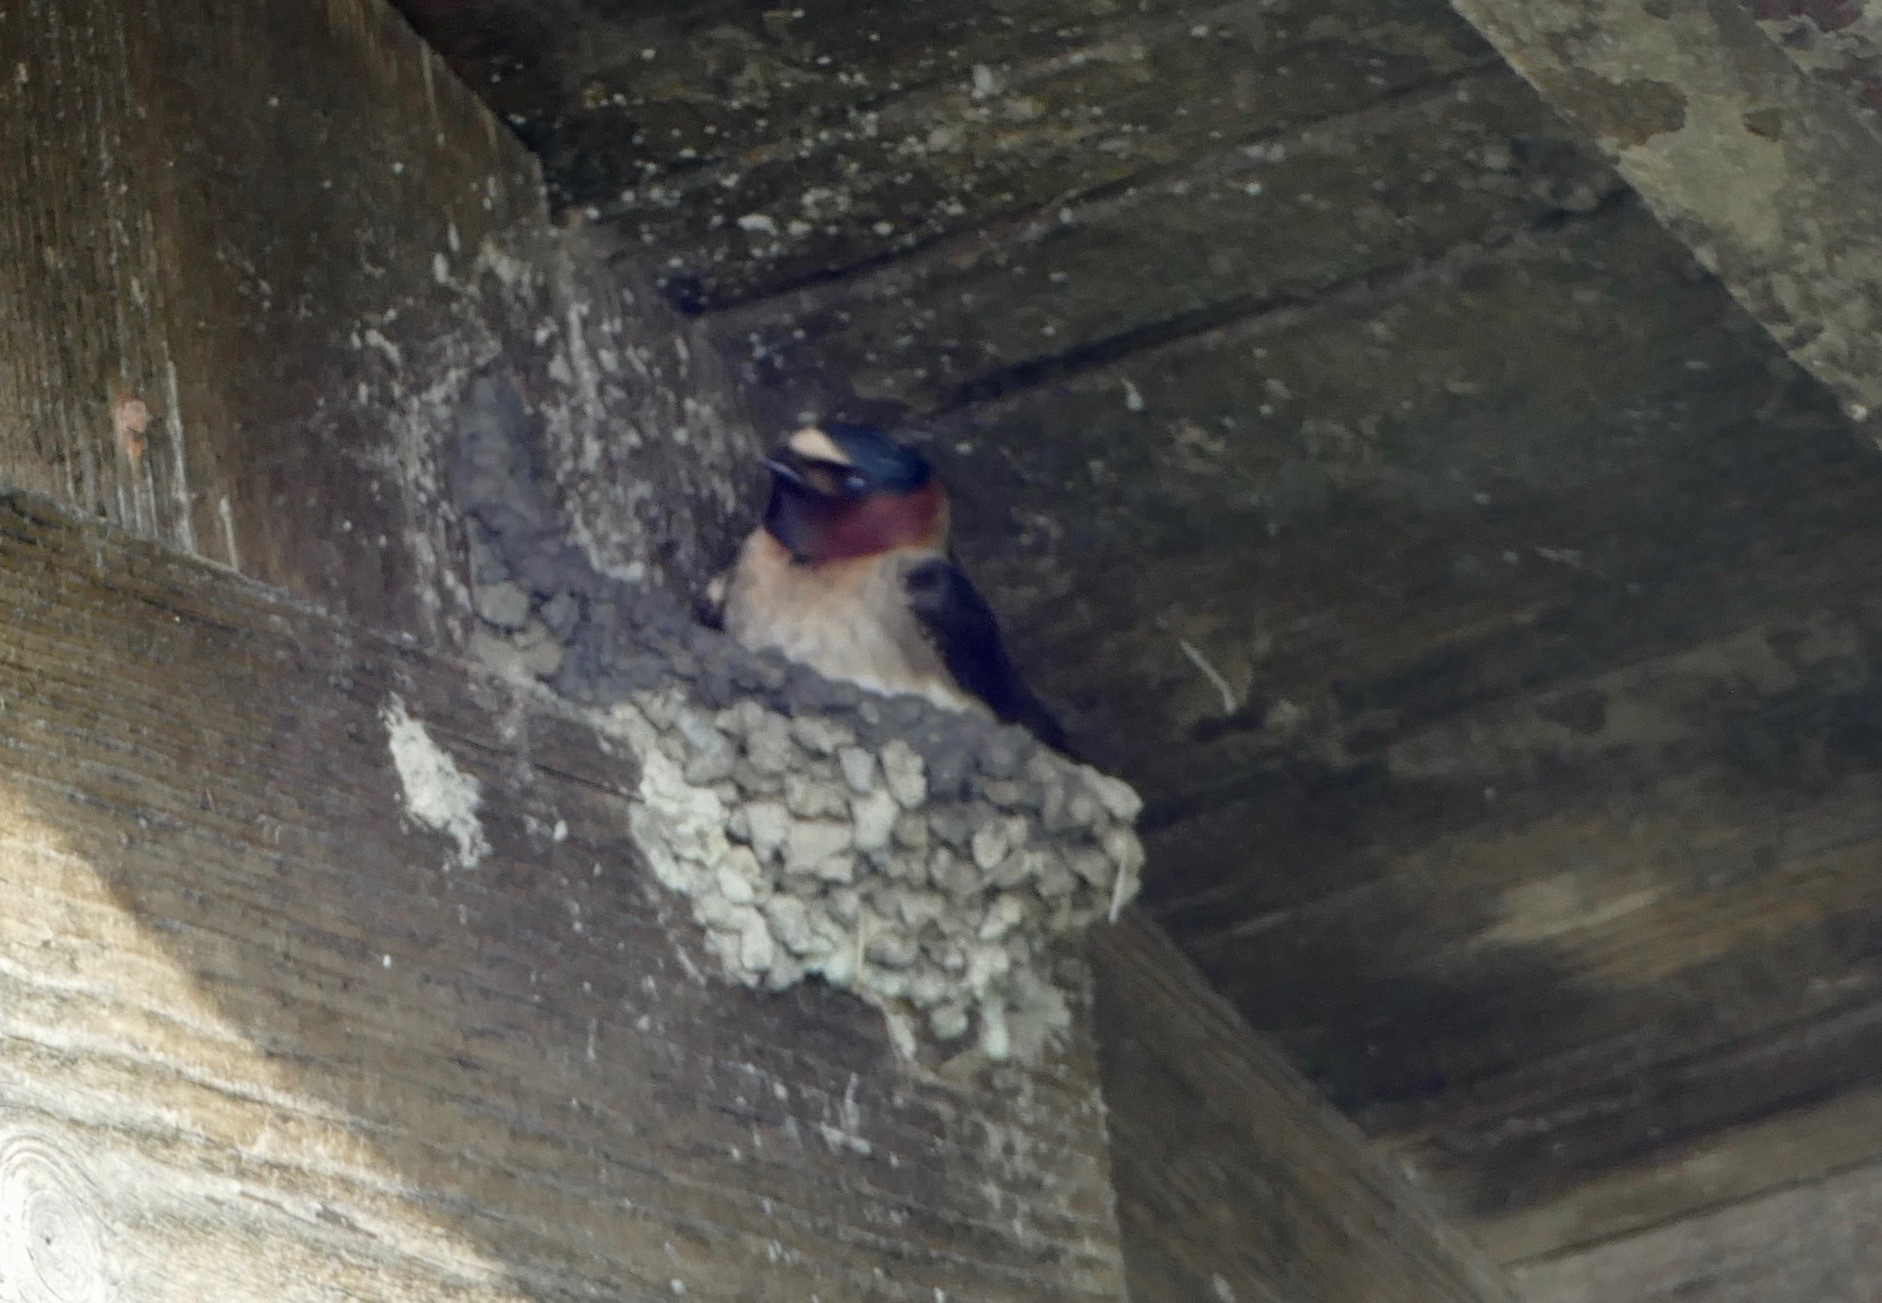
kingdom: Animalia
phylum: Chordata
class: Aves
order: Passeriformes
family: Hirundinidae
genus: Petrochelidon
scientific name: Petrochelidon pyrrhonota
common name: American cliff swallow
